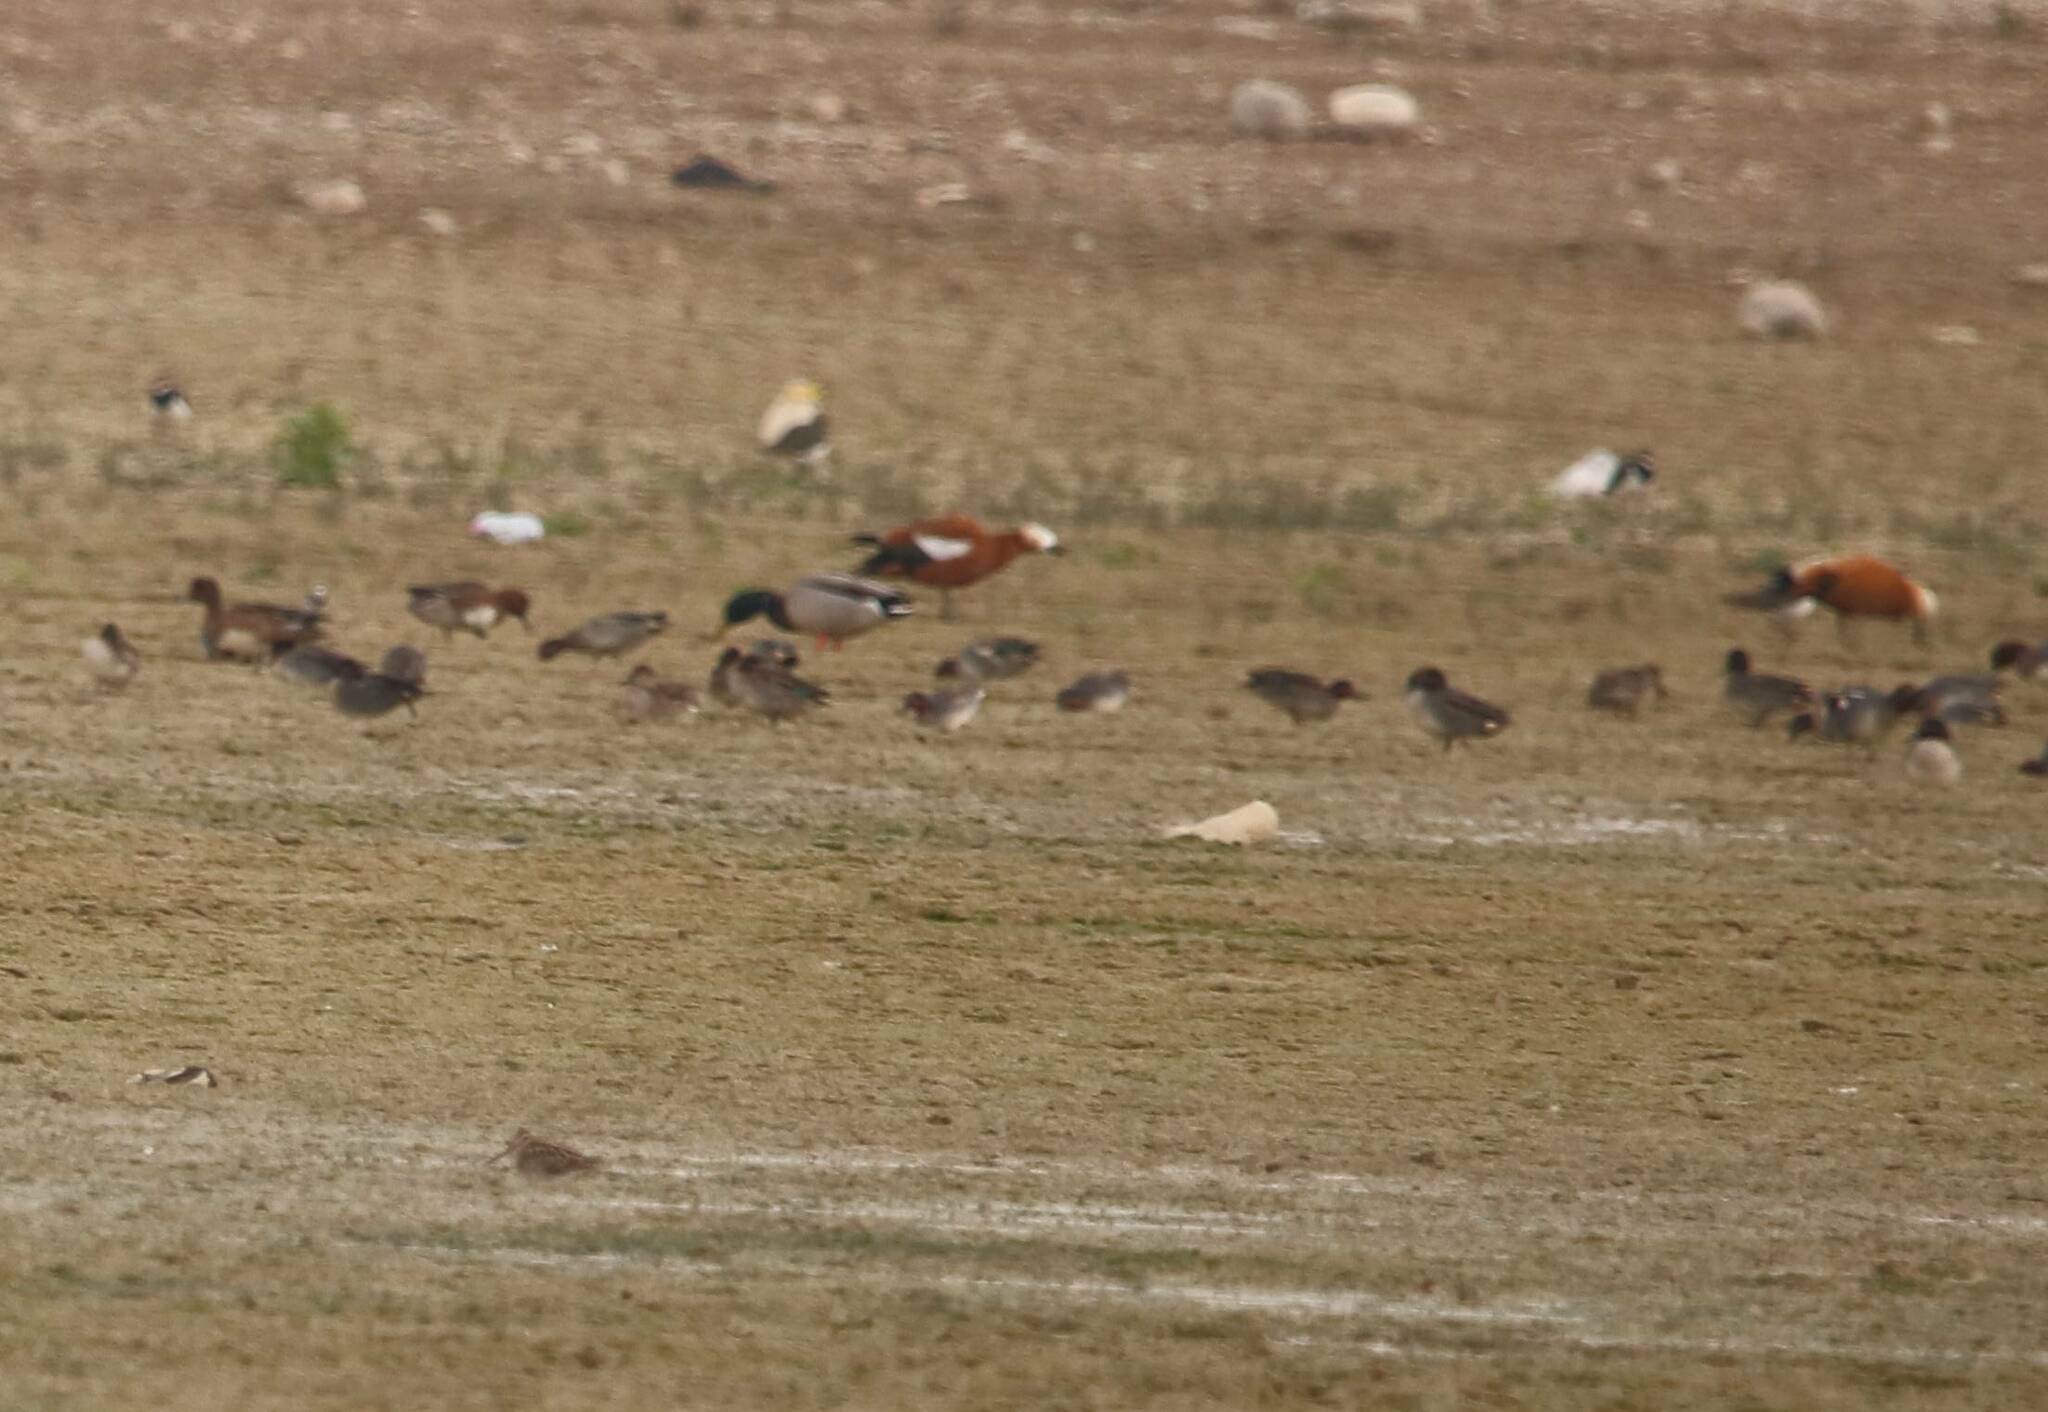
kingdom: Animalia
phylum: Chordata
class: Aves
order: Anseriformes
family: Anatidae
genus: Tadorna
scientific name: Tadorna ferruginea
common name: Ruddy shelduck
